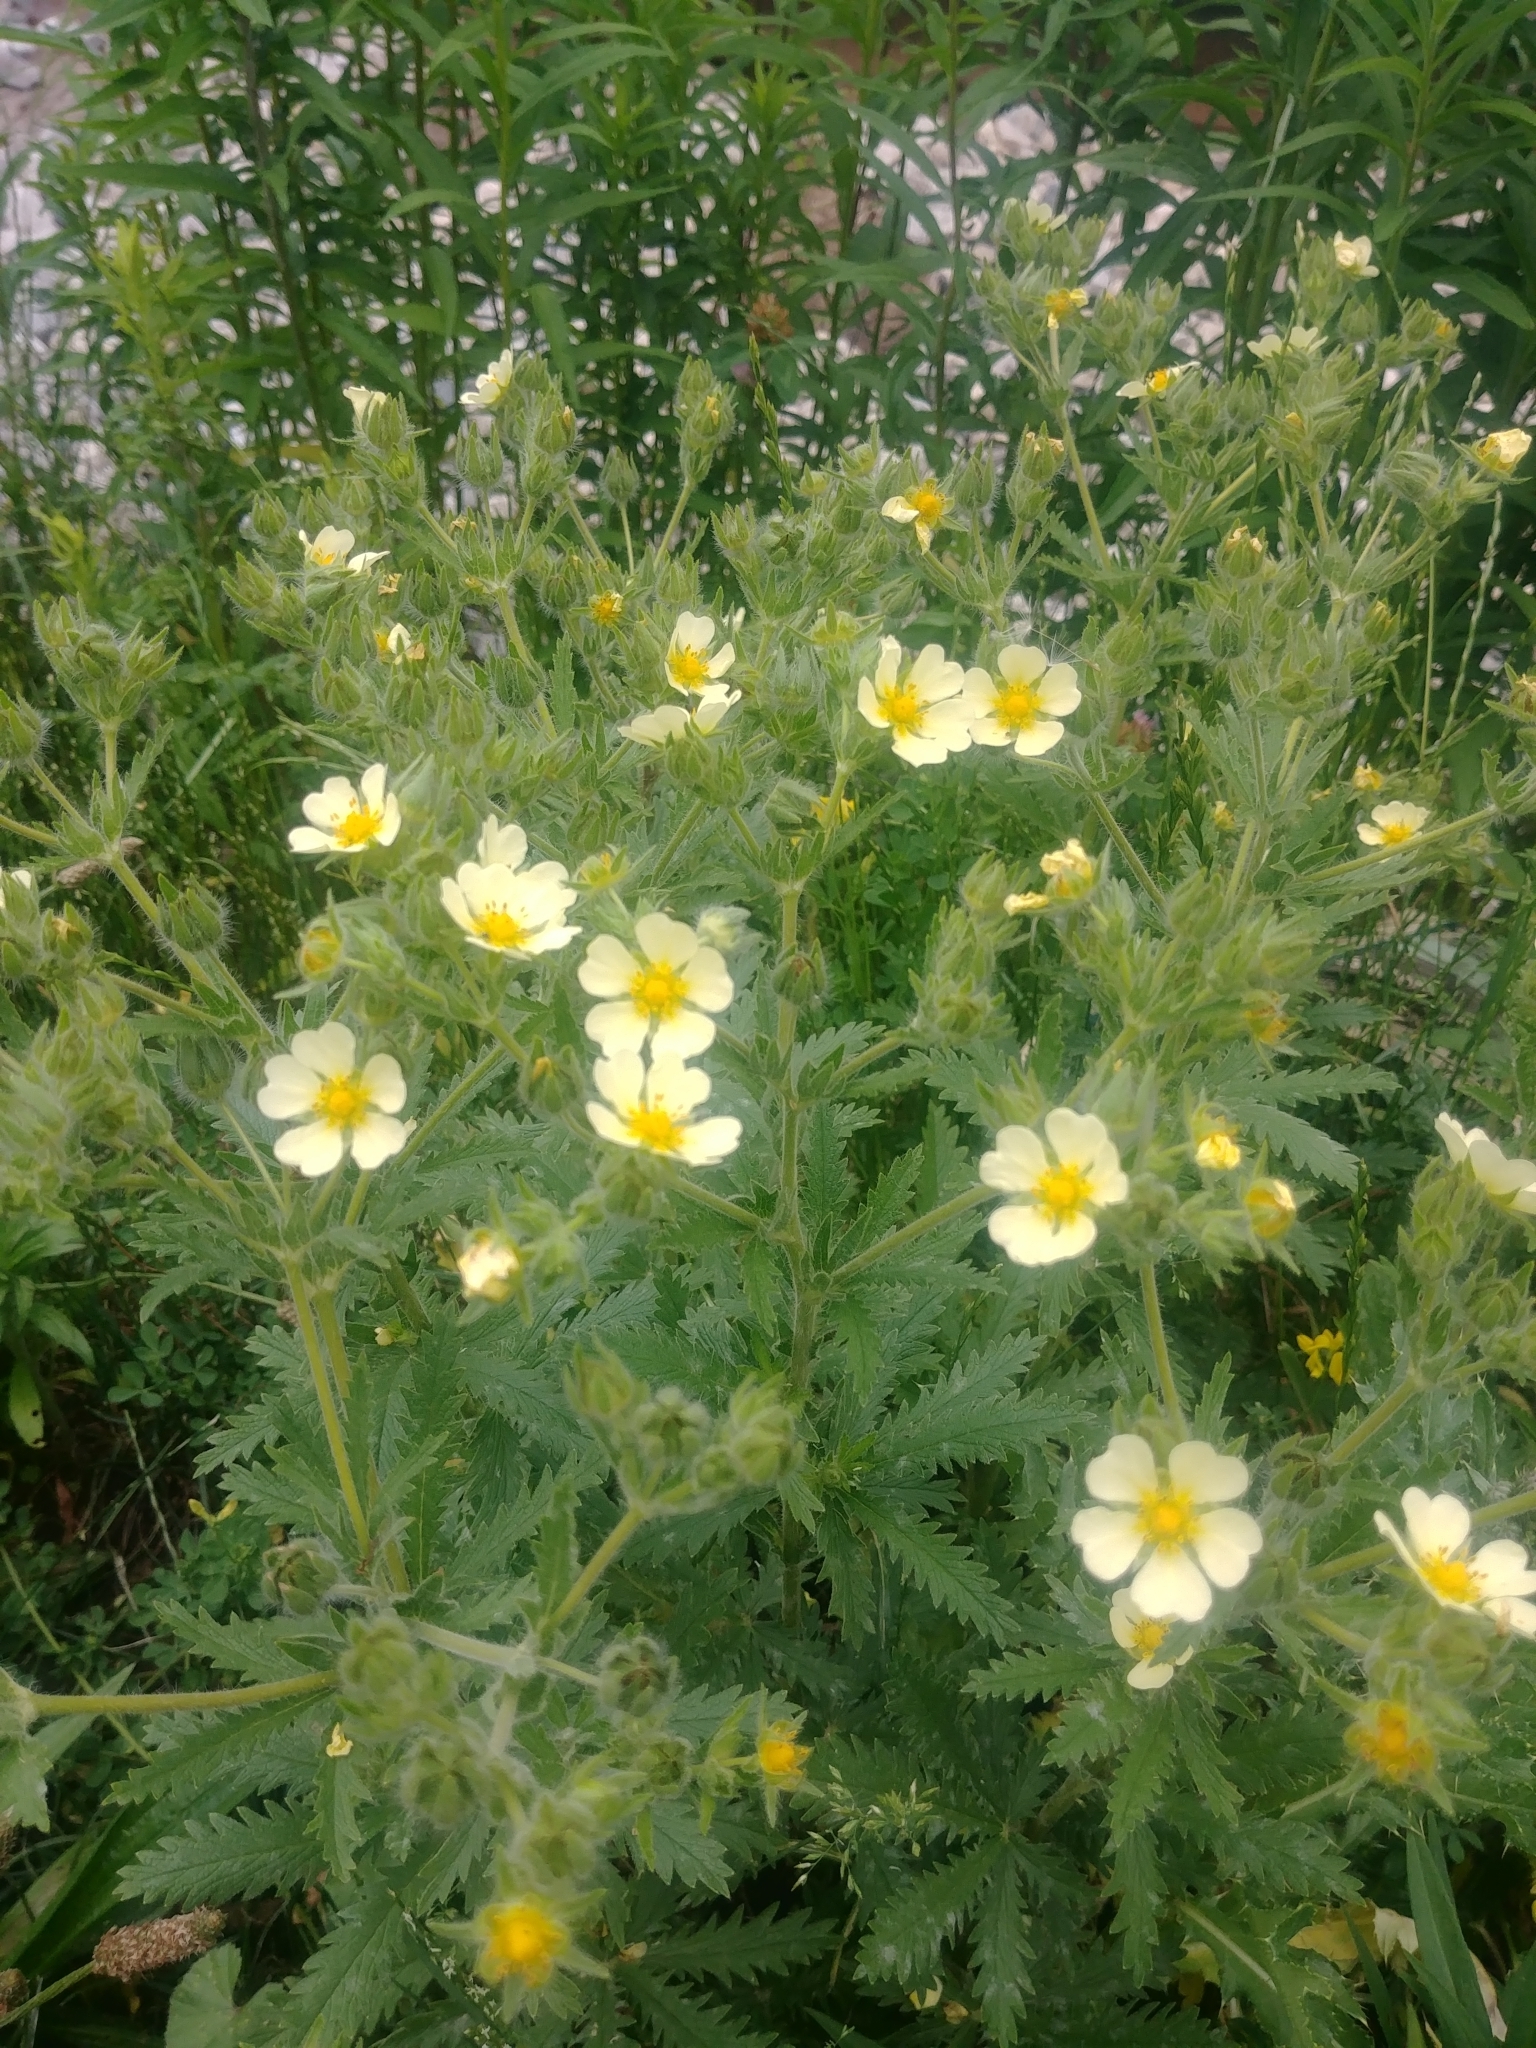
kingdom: Plantae
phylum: Tracheophyta
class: Magnoliopsida
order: Rosales
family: Rosaceae
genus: Potentilla
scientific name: Potentilla recta
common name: Sulphur cinquefoil
